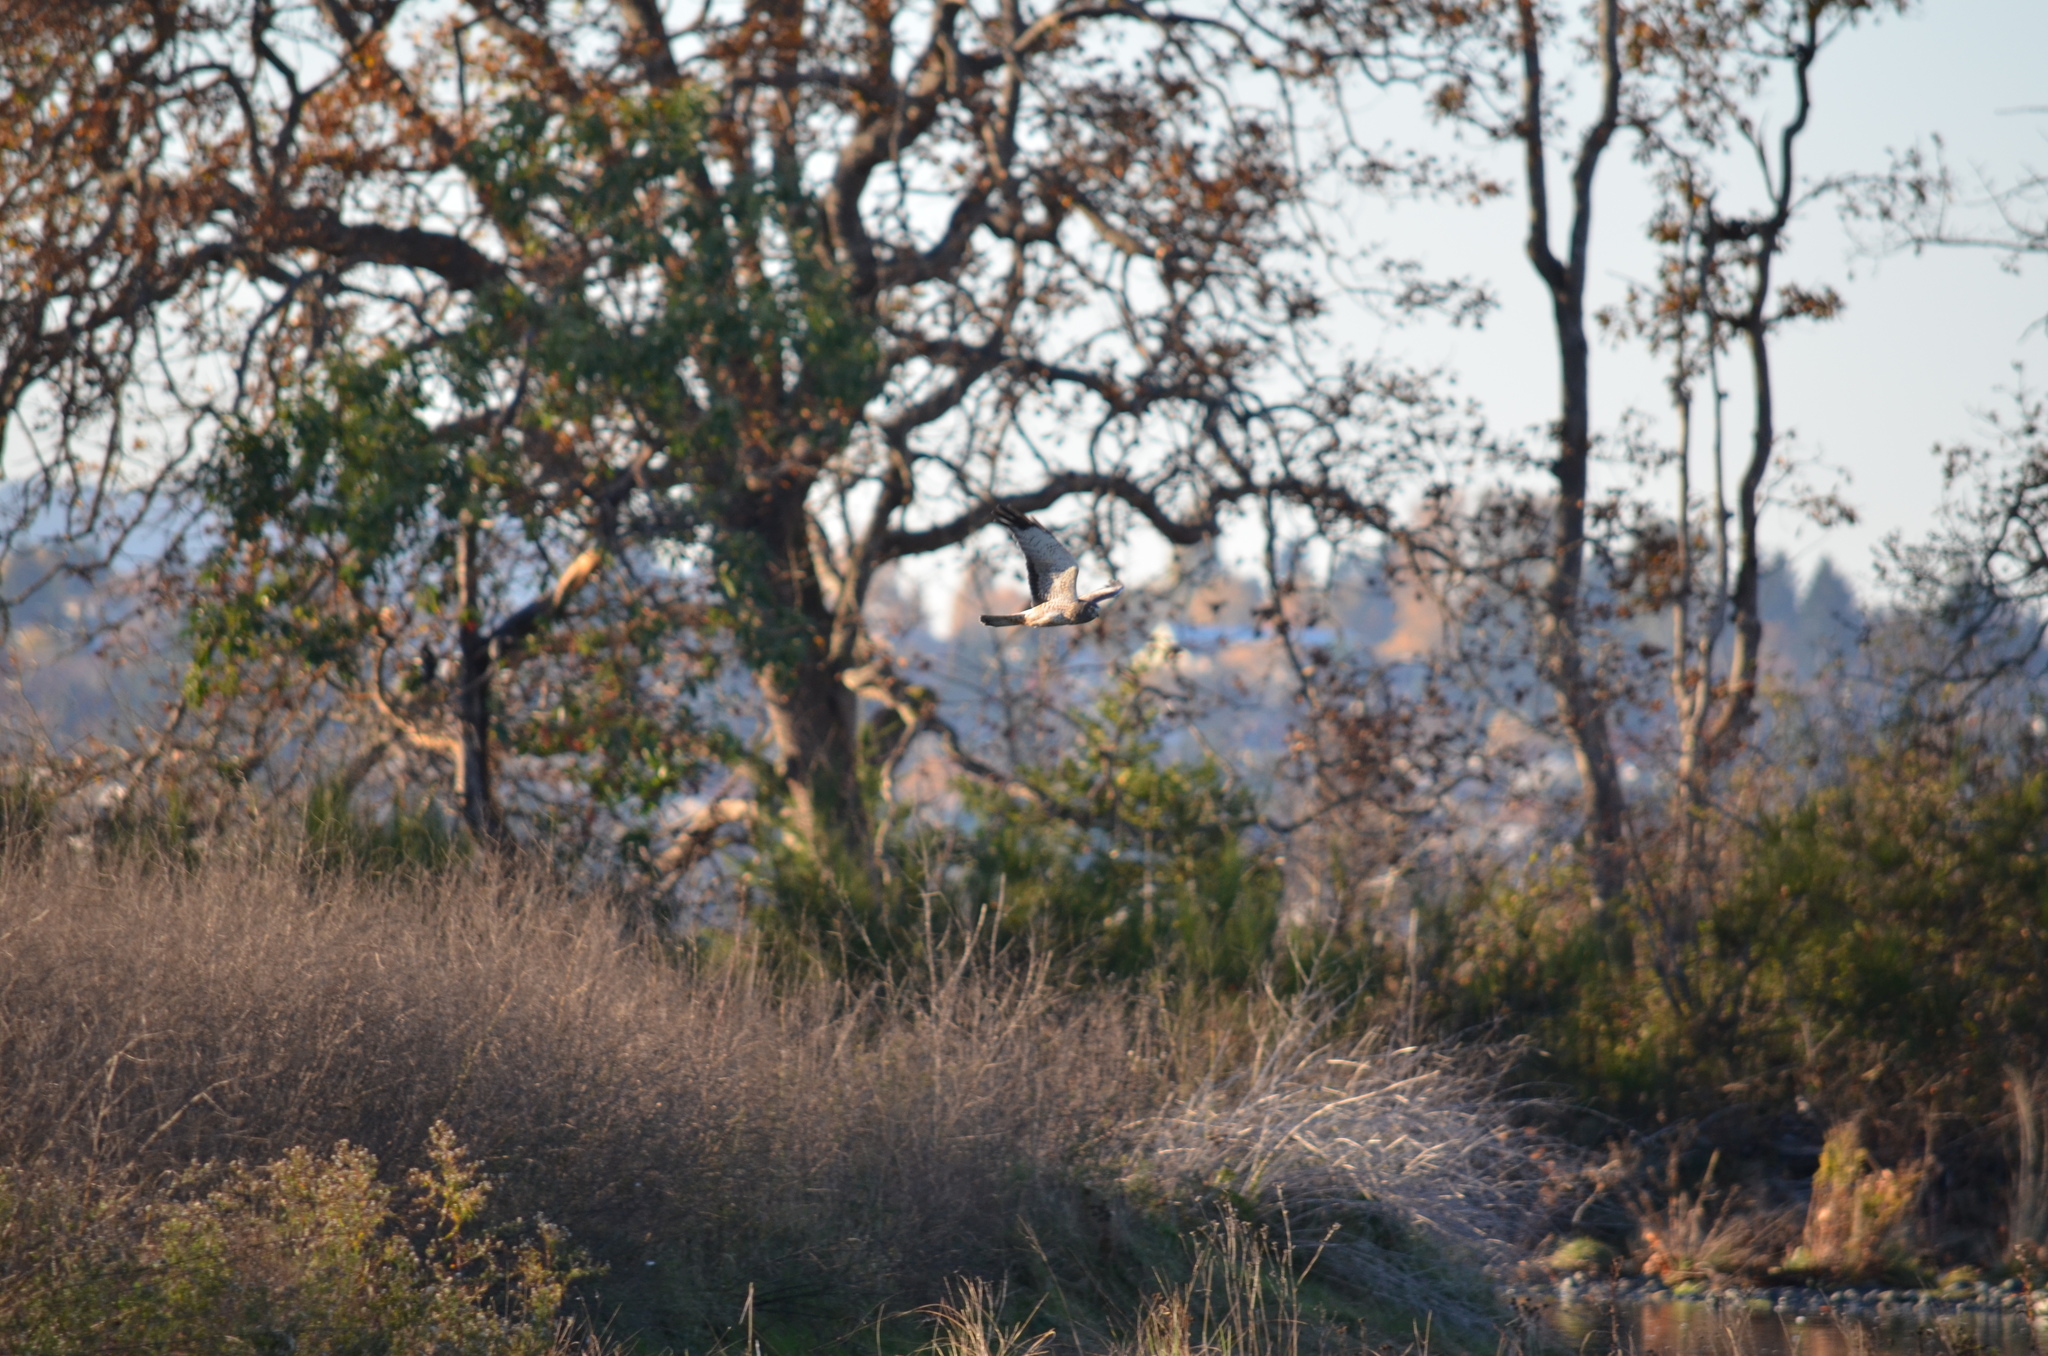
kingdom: Animalia
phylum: Chordata
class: Aves
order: Accipitriformes
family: Accipitridae
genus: Circus
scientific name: Circus cyaneus
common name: Hen harrier
